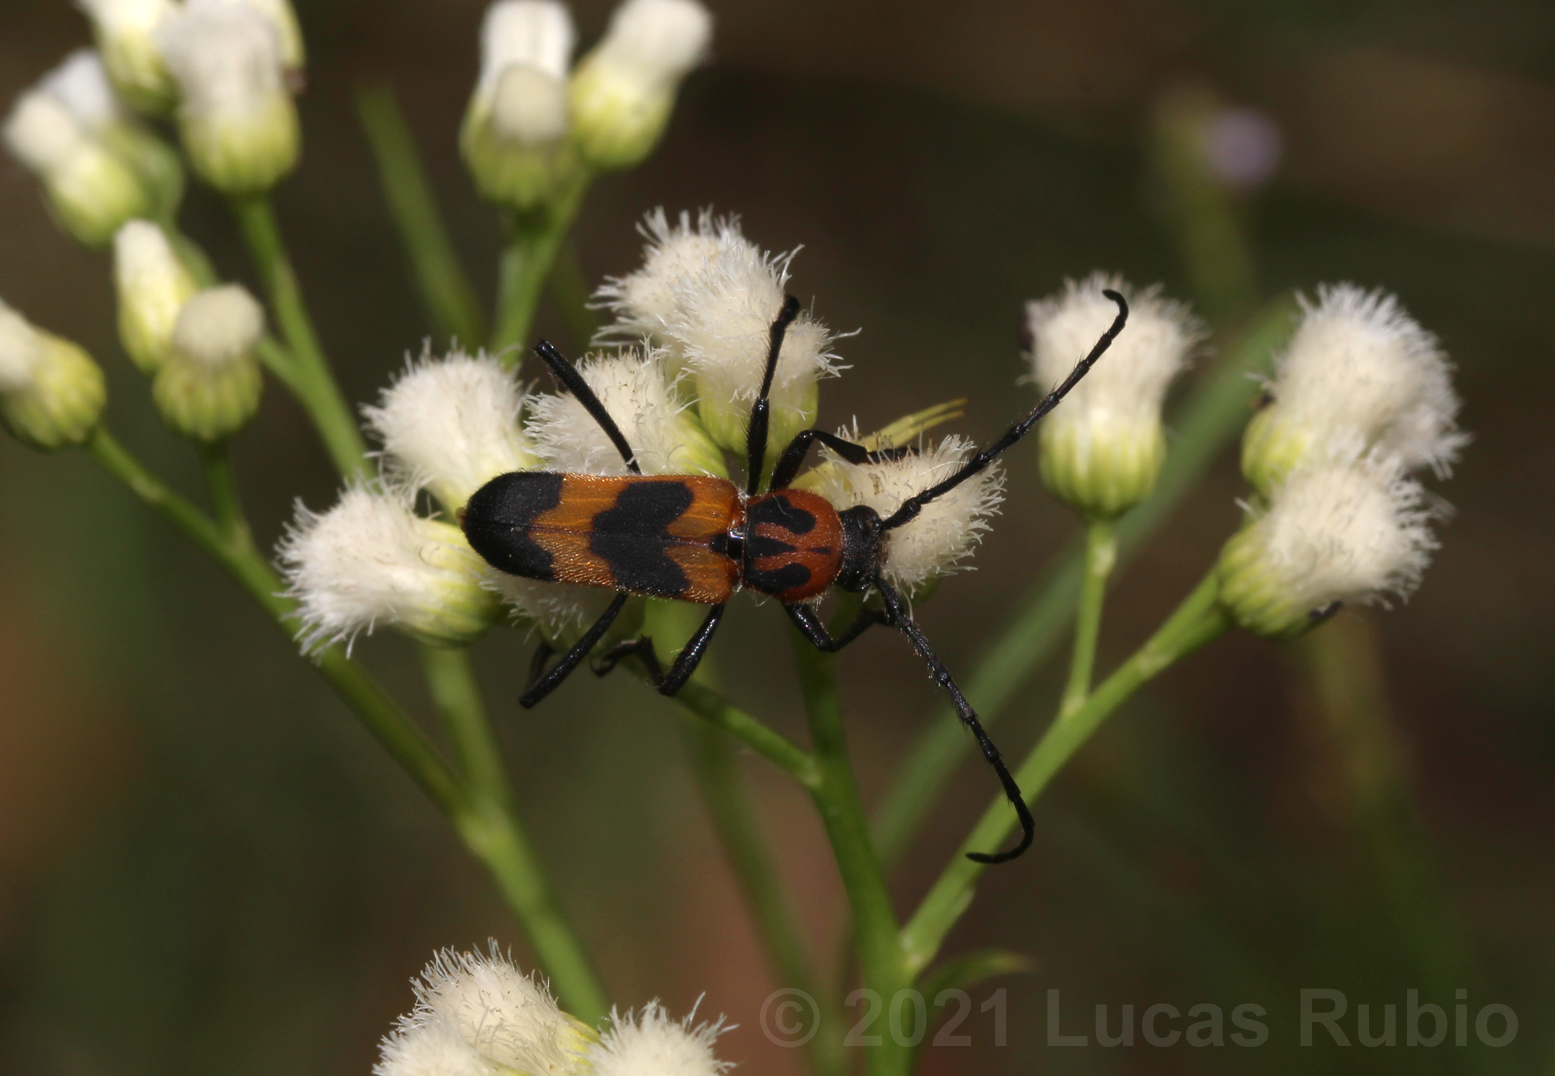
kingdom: Animalia
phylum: Arthropoda
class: Insecta
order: Coleoptera
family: Cerambycidae
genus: Erythrochiton
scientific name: Erythrochiton jucundum
